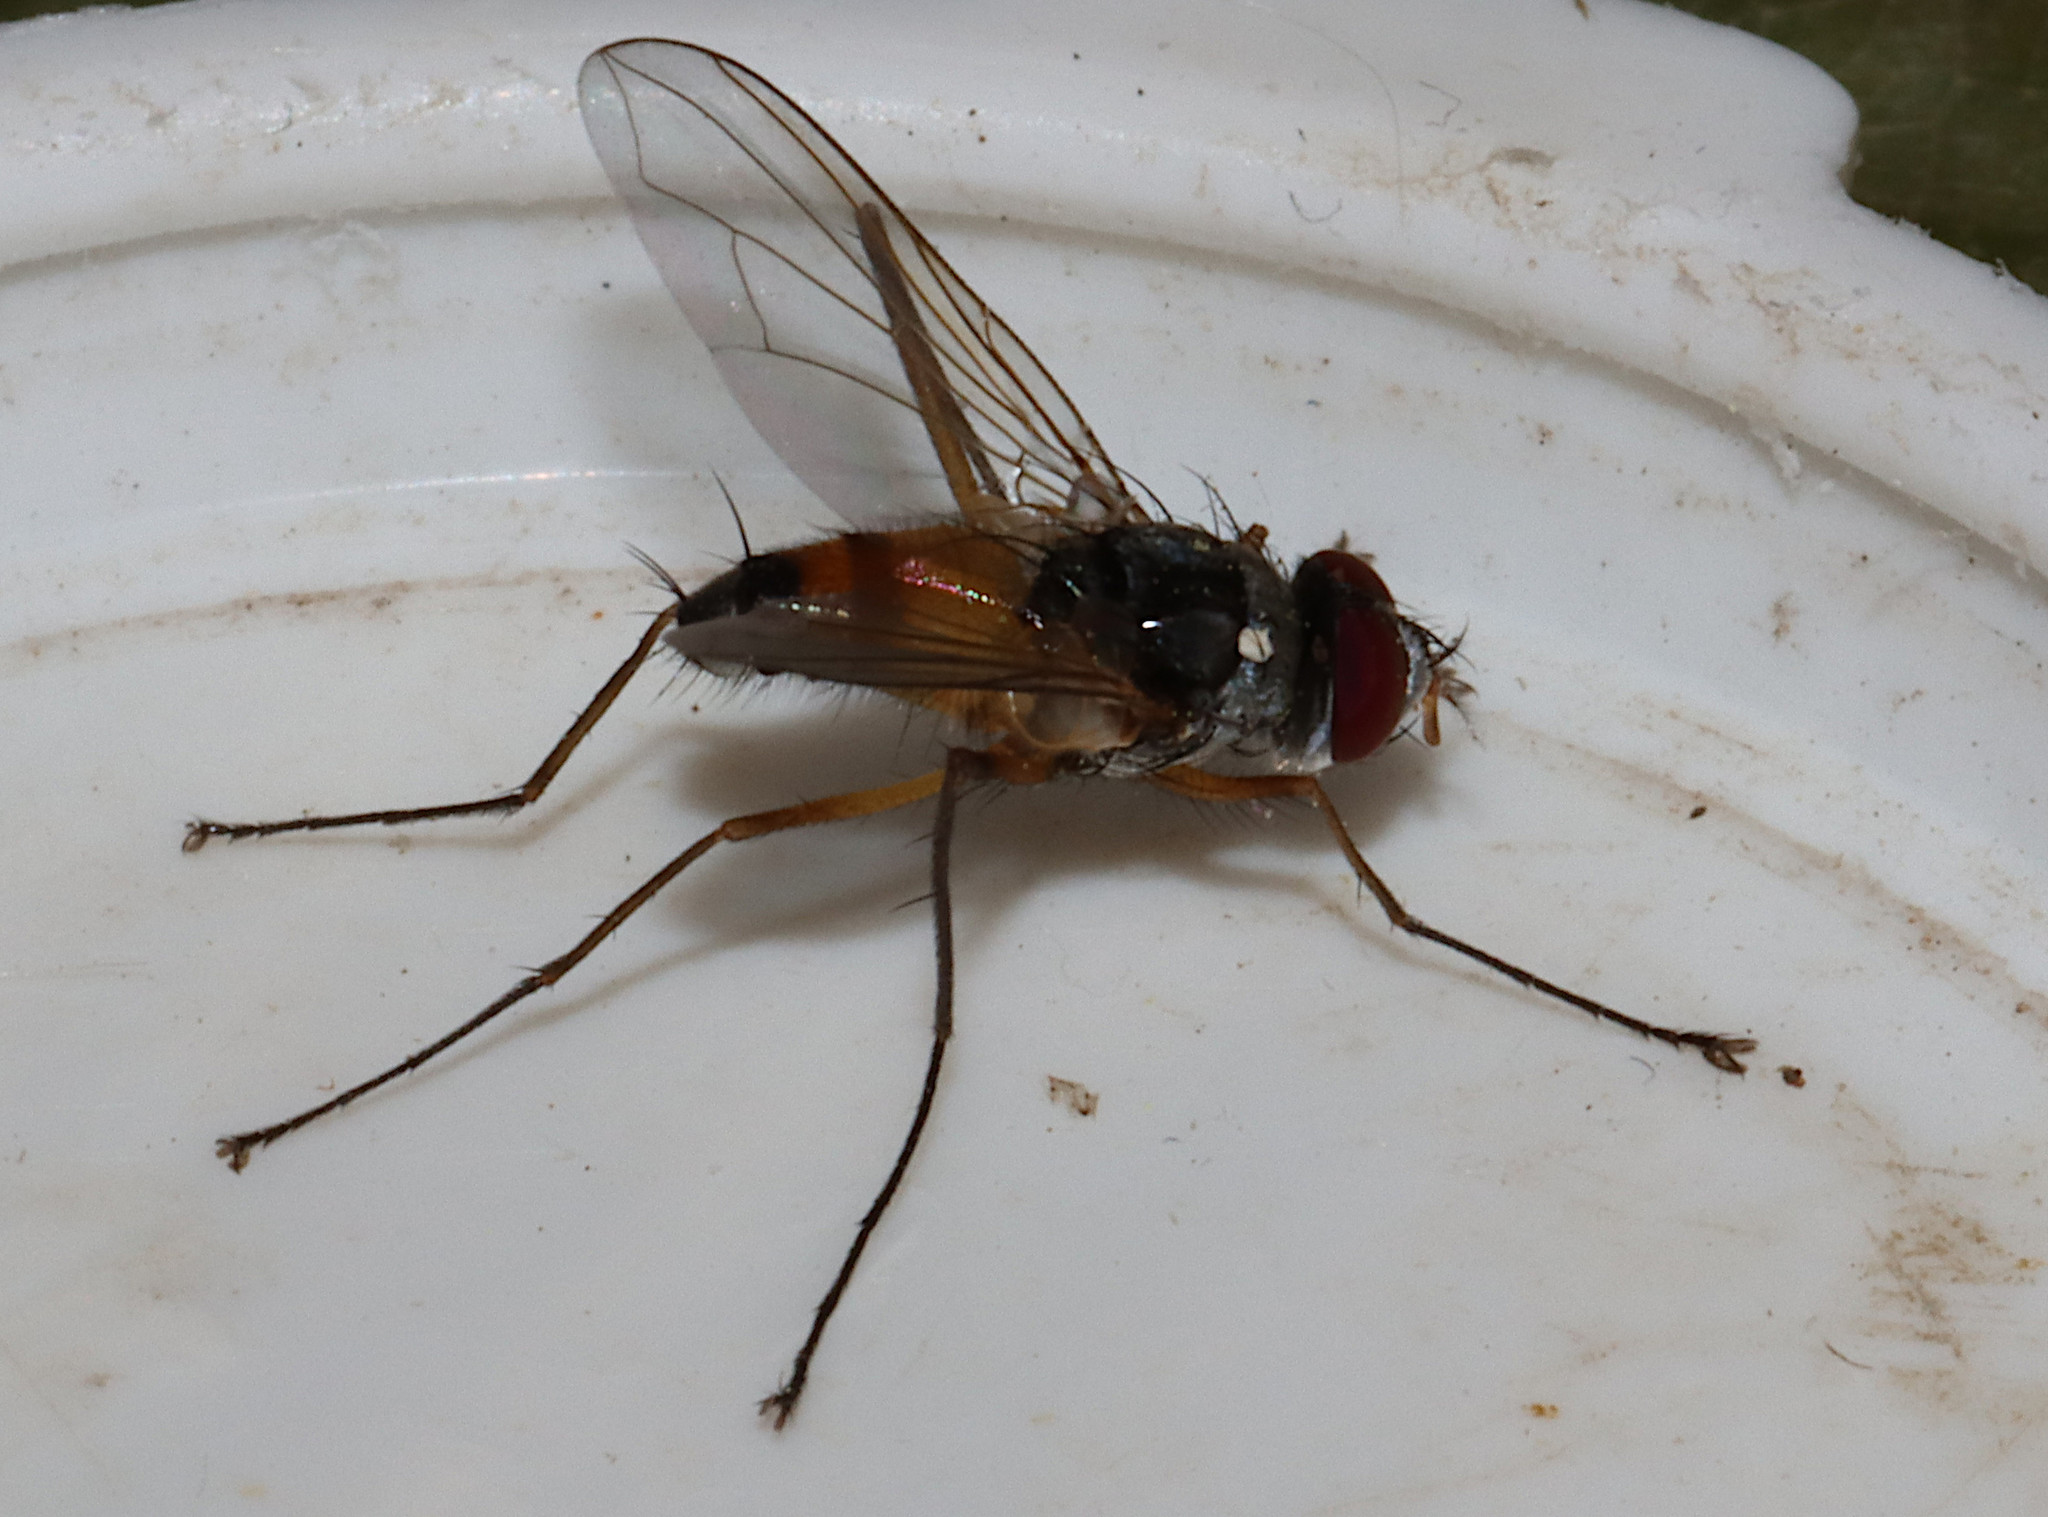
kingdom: Animalia
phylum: Arthropoda
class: Insecta
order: Diptera
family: Tachinidae
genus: Cholomyia
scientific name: Cholomyia inaequipes
